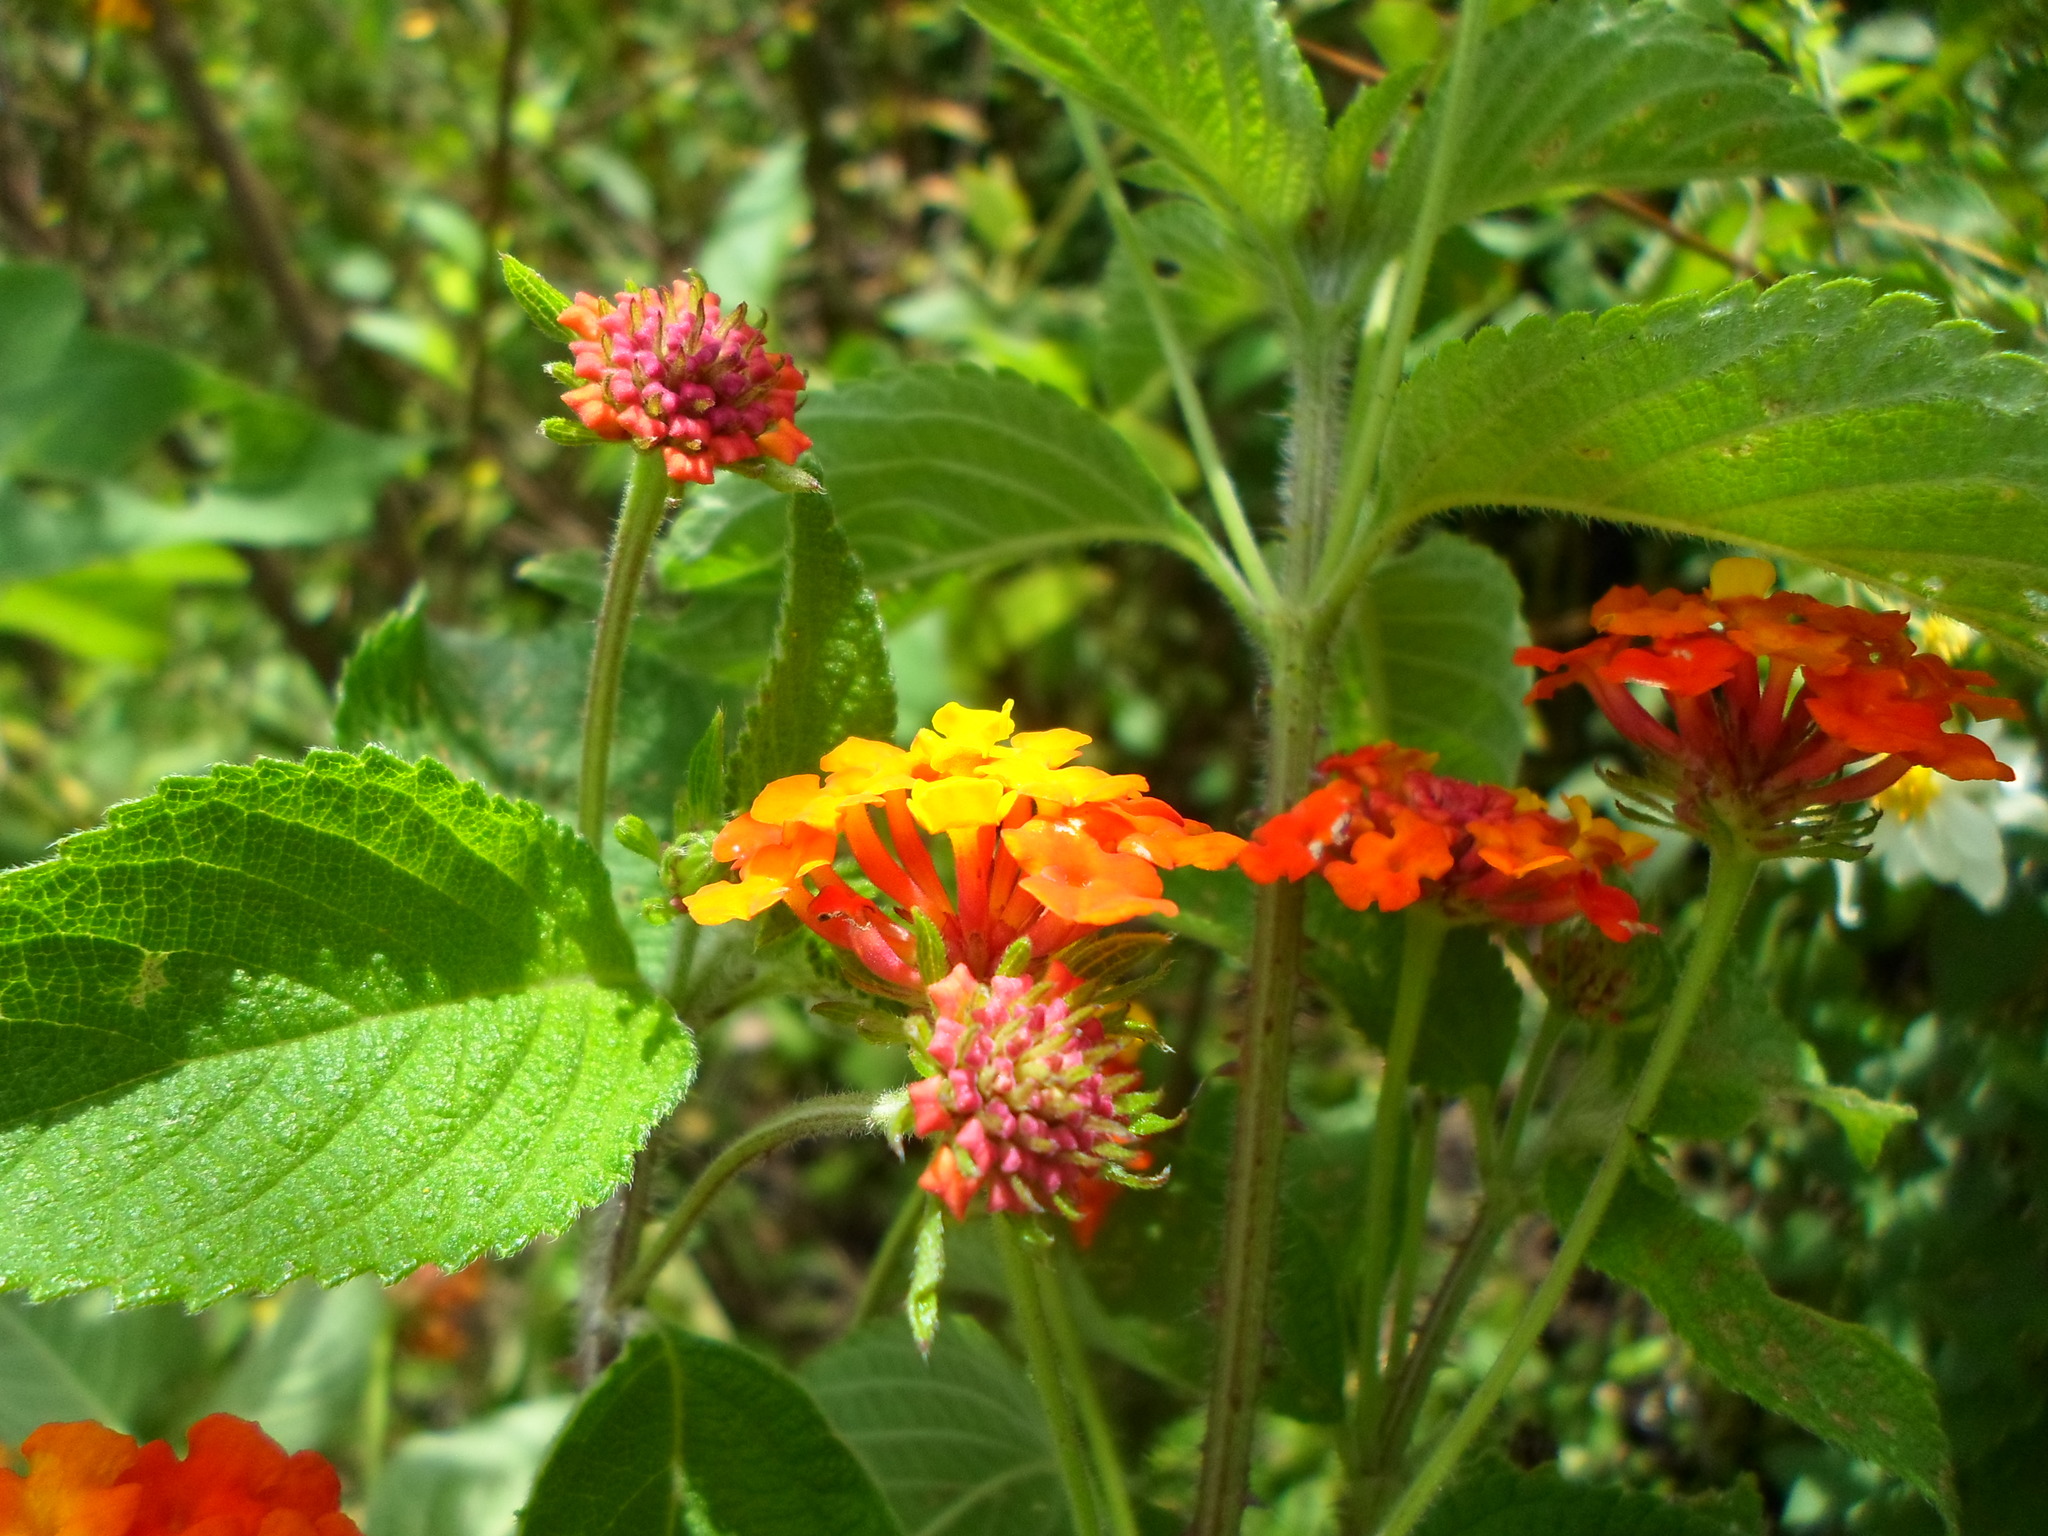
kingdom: Plantae
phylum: Tracheophyta
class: Magnoliopsida
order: Lamiales
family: Verbenaceae
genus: Lantana
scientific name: Lantana camara
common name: Lantana
